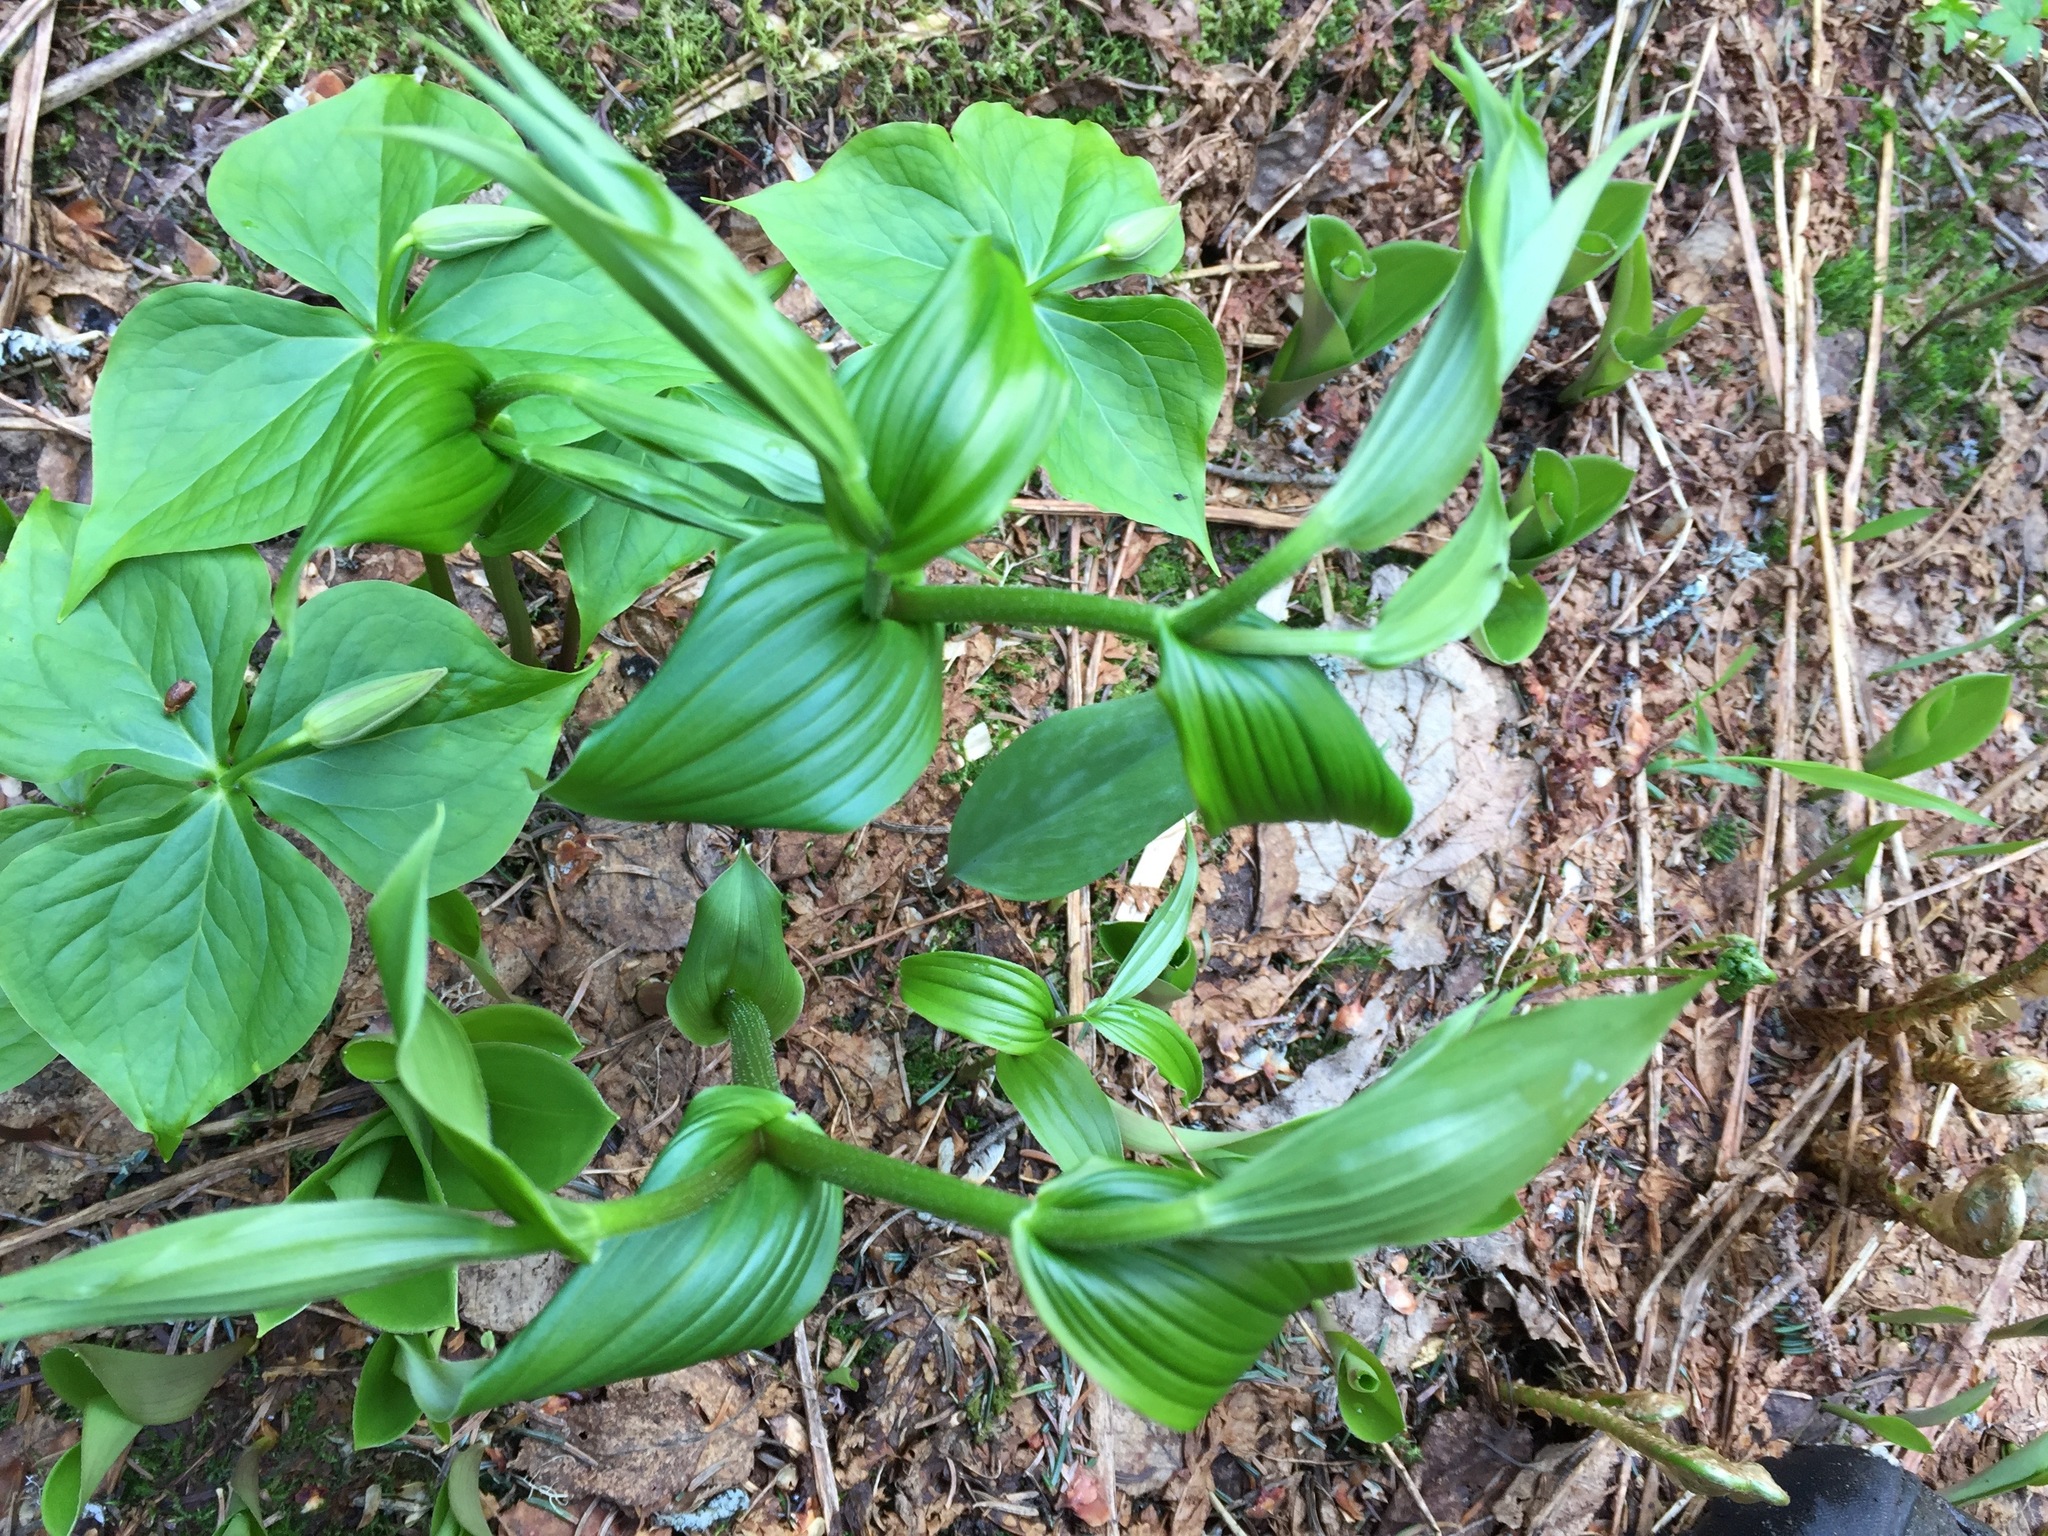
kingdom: Plantae
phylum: Tracheophyta
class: Liliopsida
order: Liliales
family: Liliaceae
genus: Streptopus
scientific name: Streptopus lanceolatus
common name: Rose mandarin
